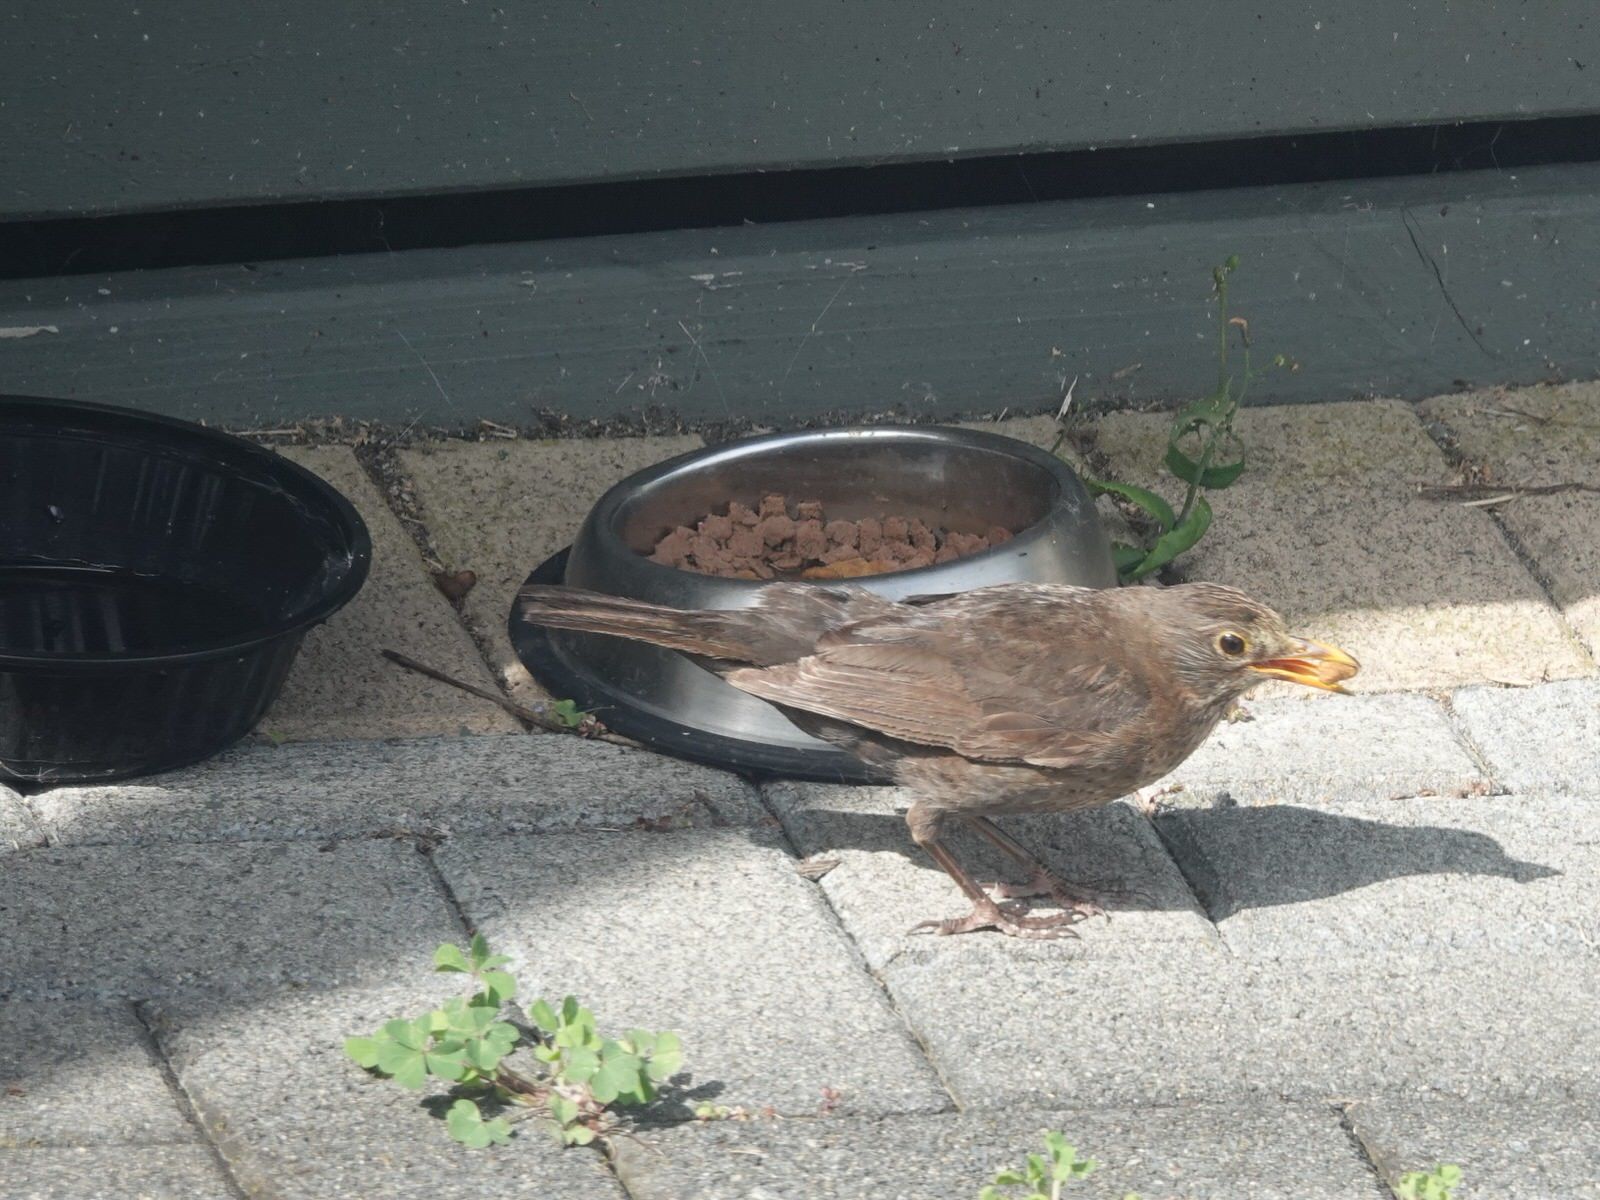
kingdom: Animalia
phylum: Chordata
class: Aves
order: Passeriformes
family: Turdidae
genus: Turdus
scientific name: Turdus merula
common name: Common blackbird
